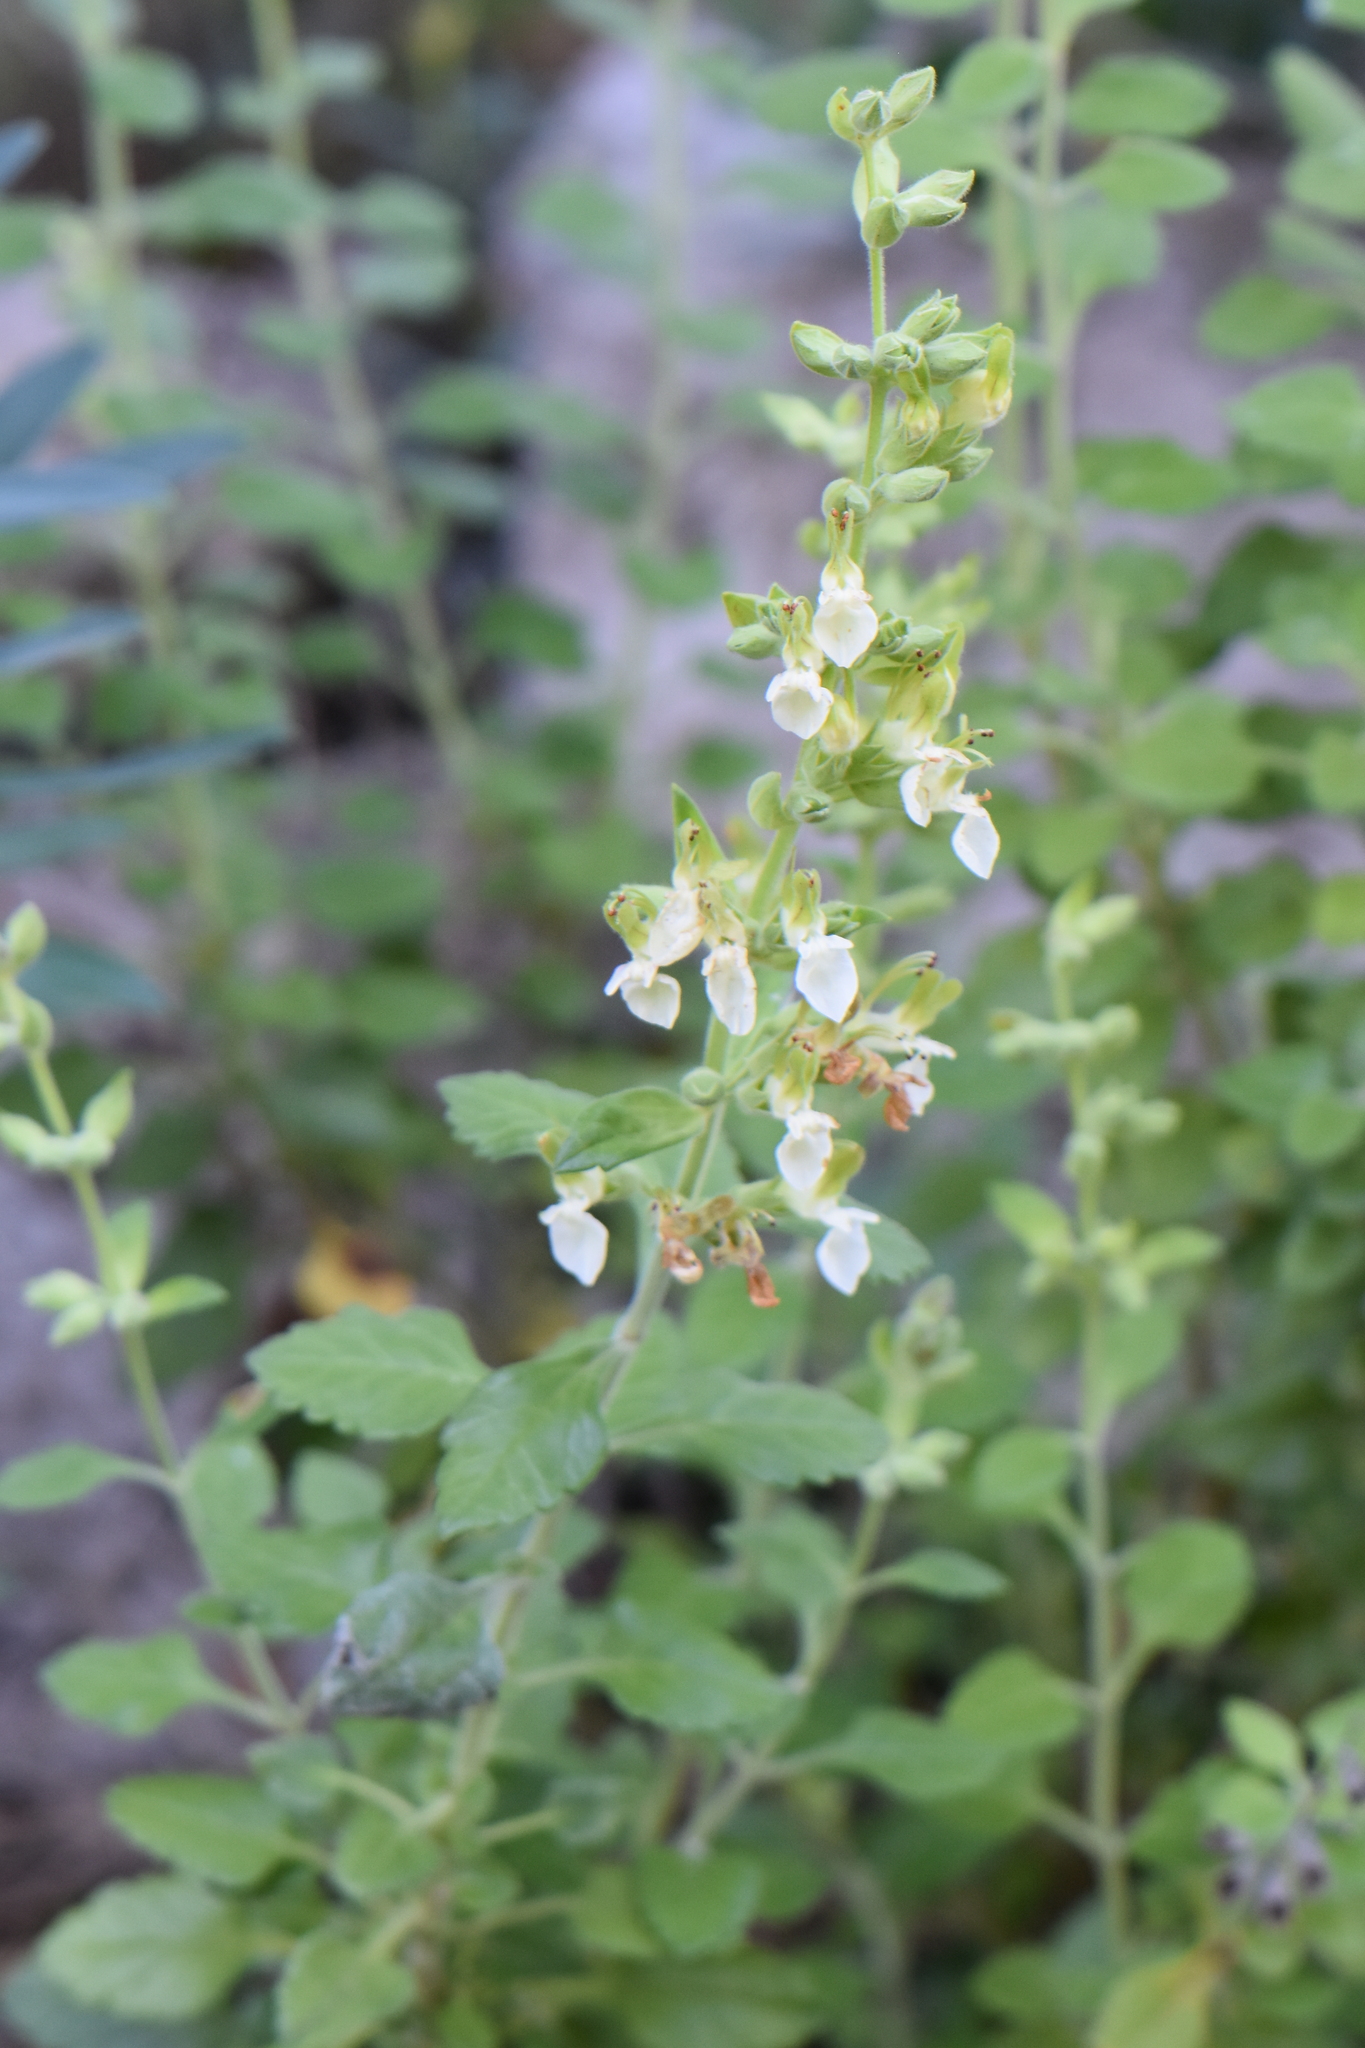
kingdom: Plantae
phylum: Tracheophyta
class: Magnoliopsida
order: Lamiales
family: Lamiaceae
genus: Teucrium
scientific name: Teucrium flavum
